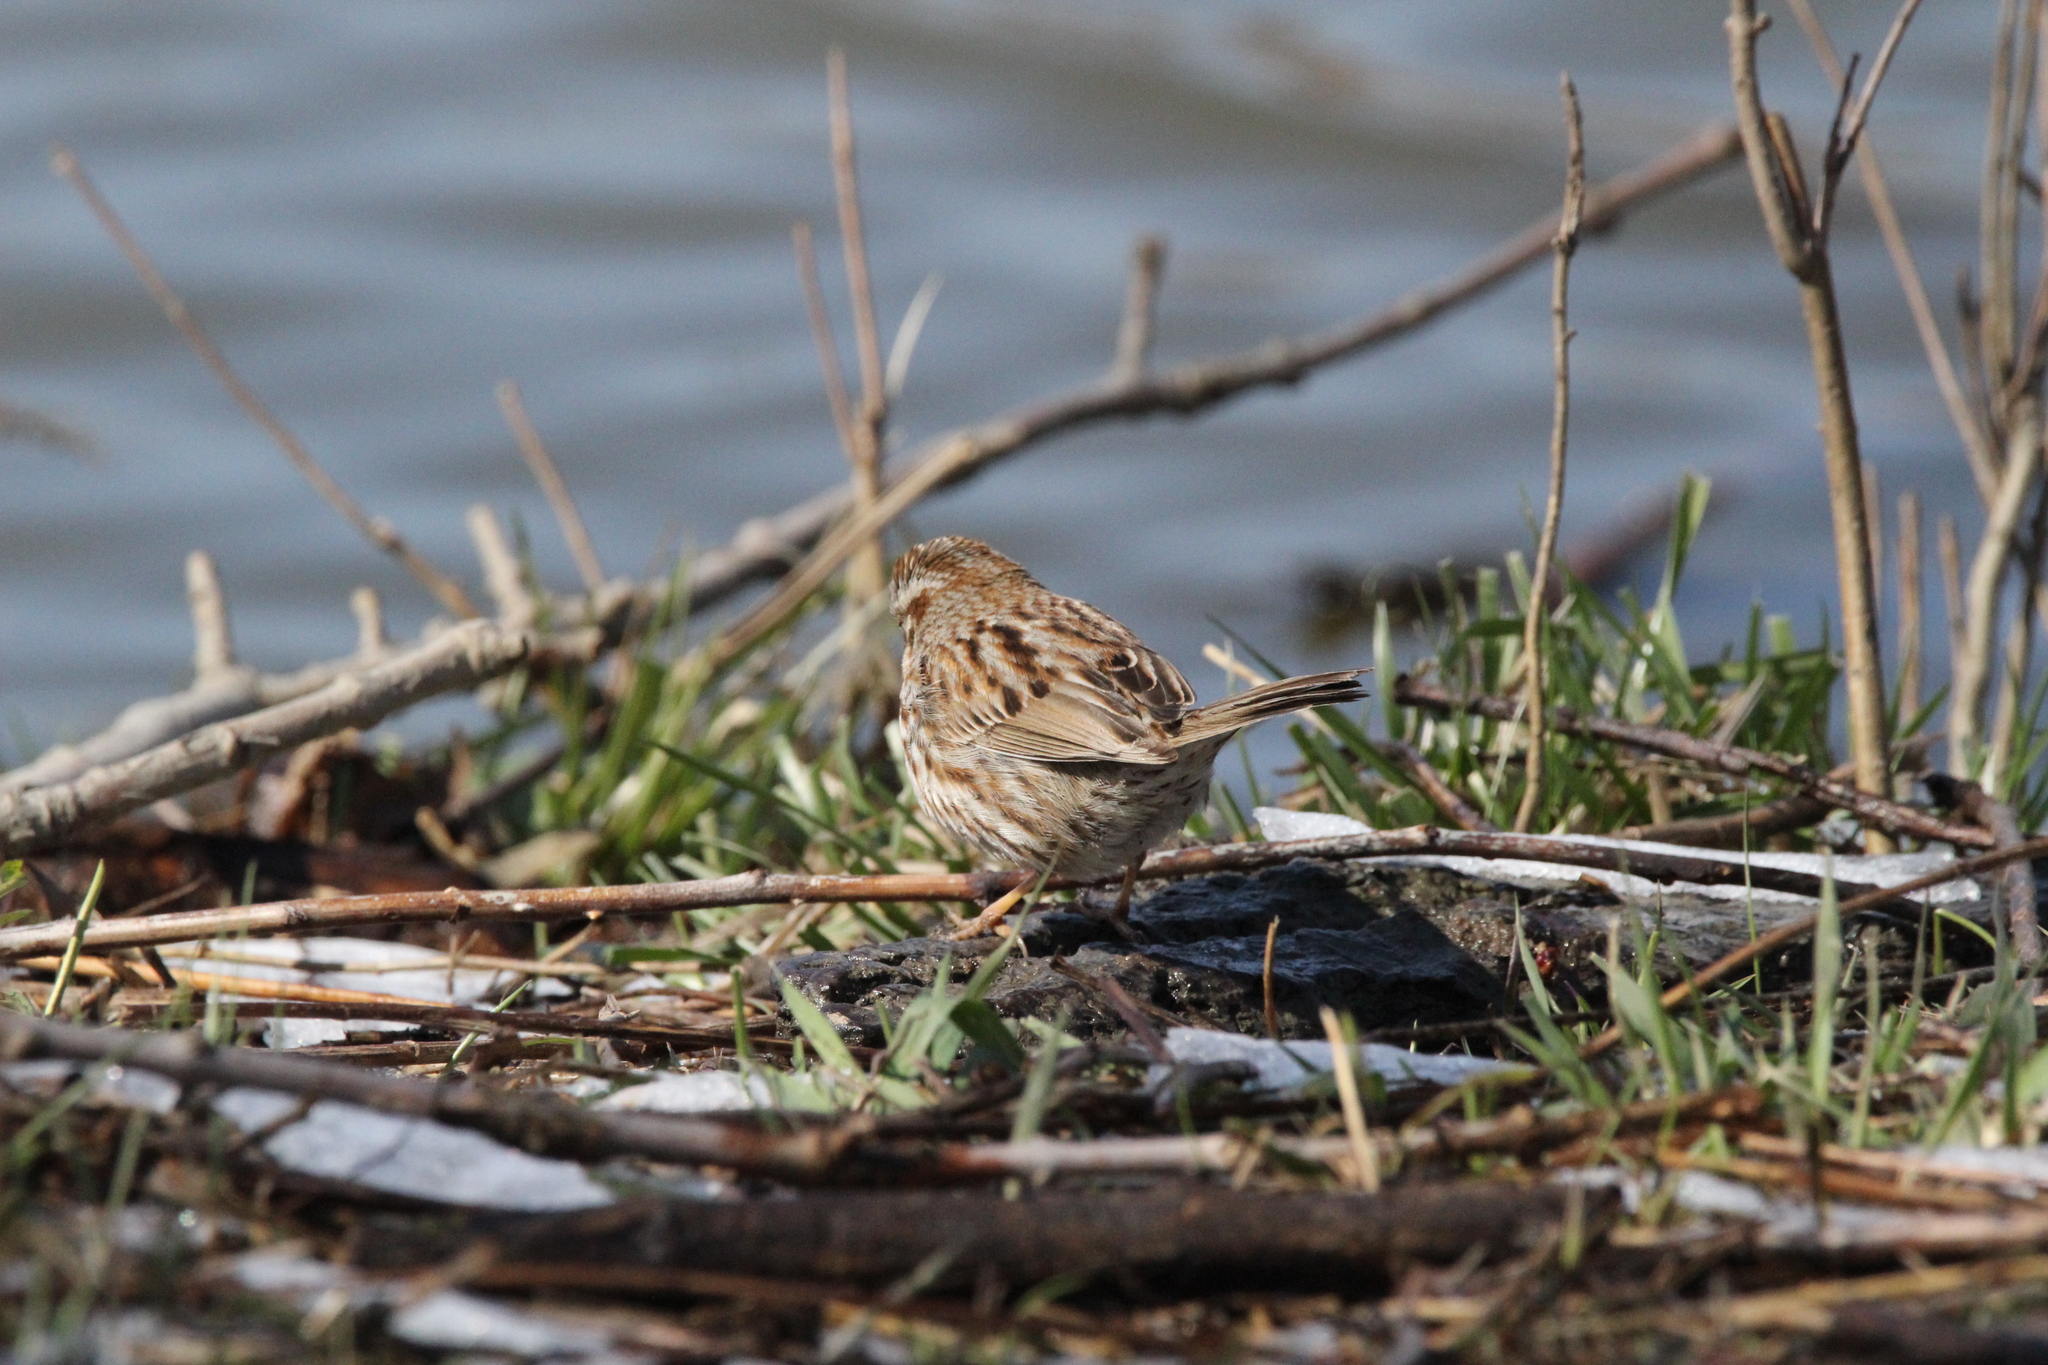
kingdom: Animalia
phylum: Chordata
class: Aves
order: Passeriformes
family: Passerellidae
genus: Melospiza
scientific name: Melospiza melodia
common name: Song sparrow
